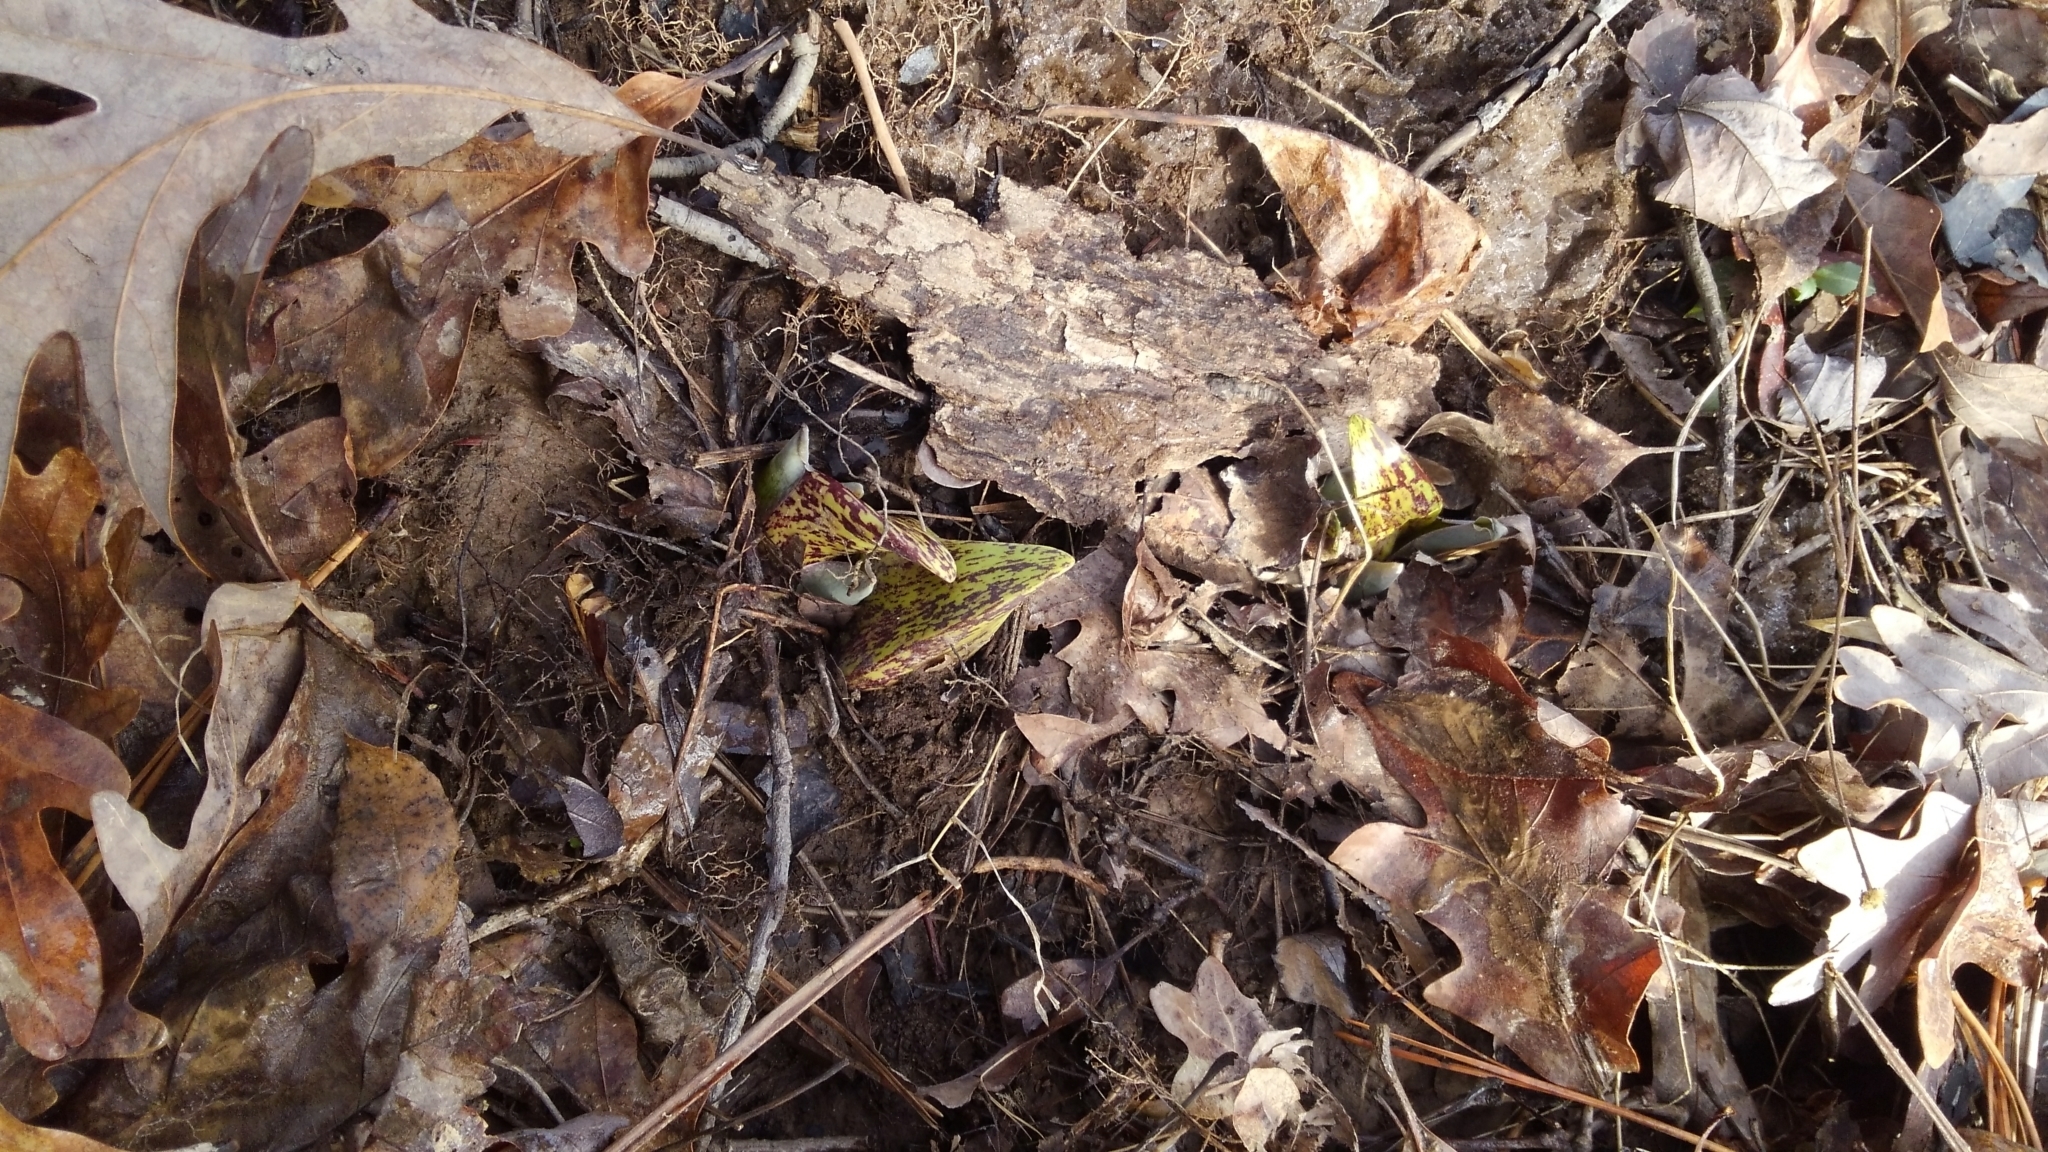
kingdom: Plantae
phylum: Tracheophyta
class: Liliopsida
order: Alismatales
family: Araceae
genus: Symplocarpus
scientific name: Symplocarpus foetidus
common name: Eastern skunk cabbage
